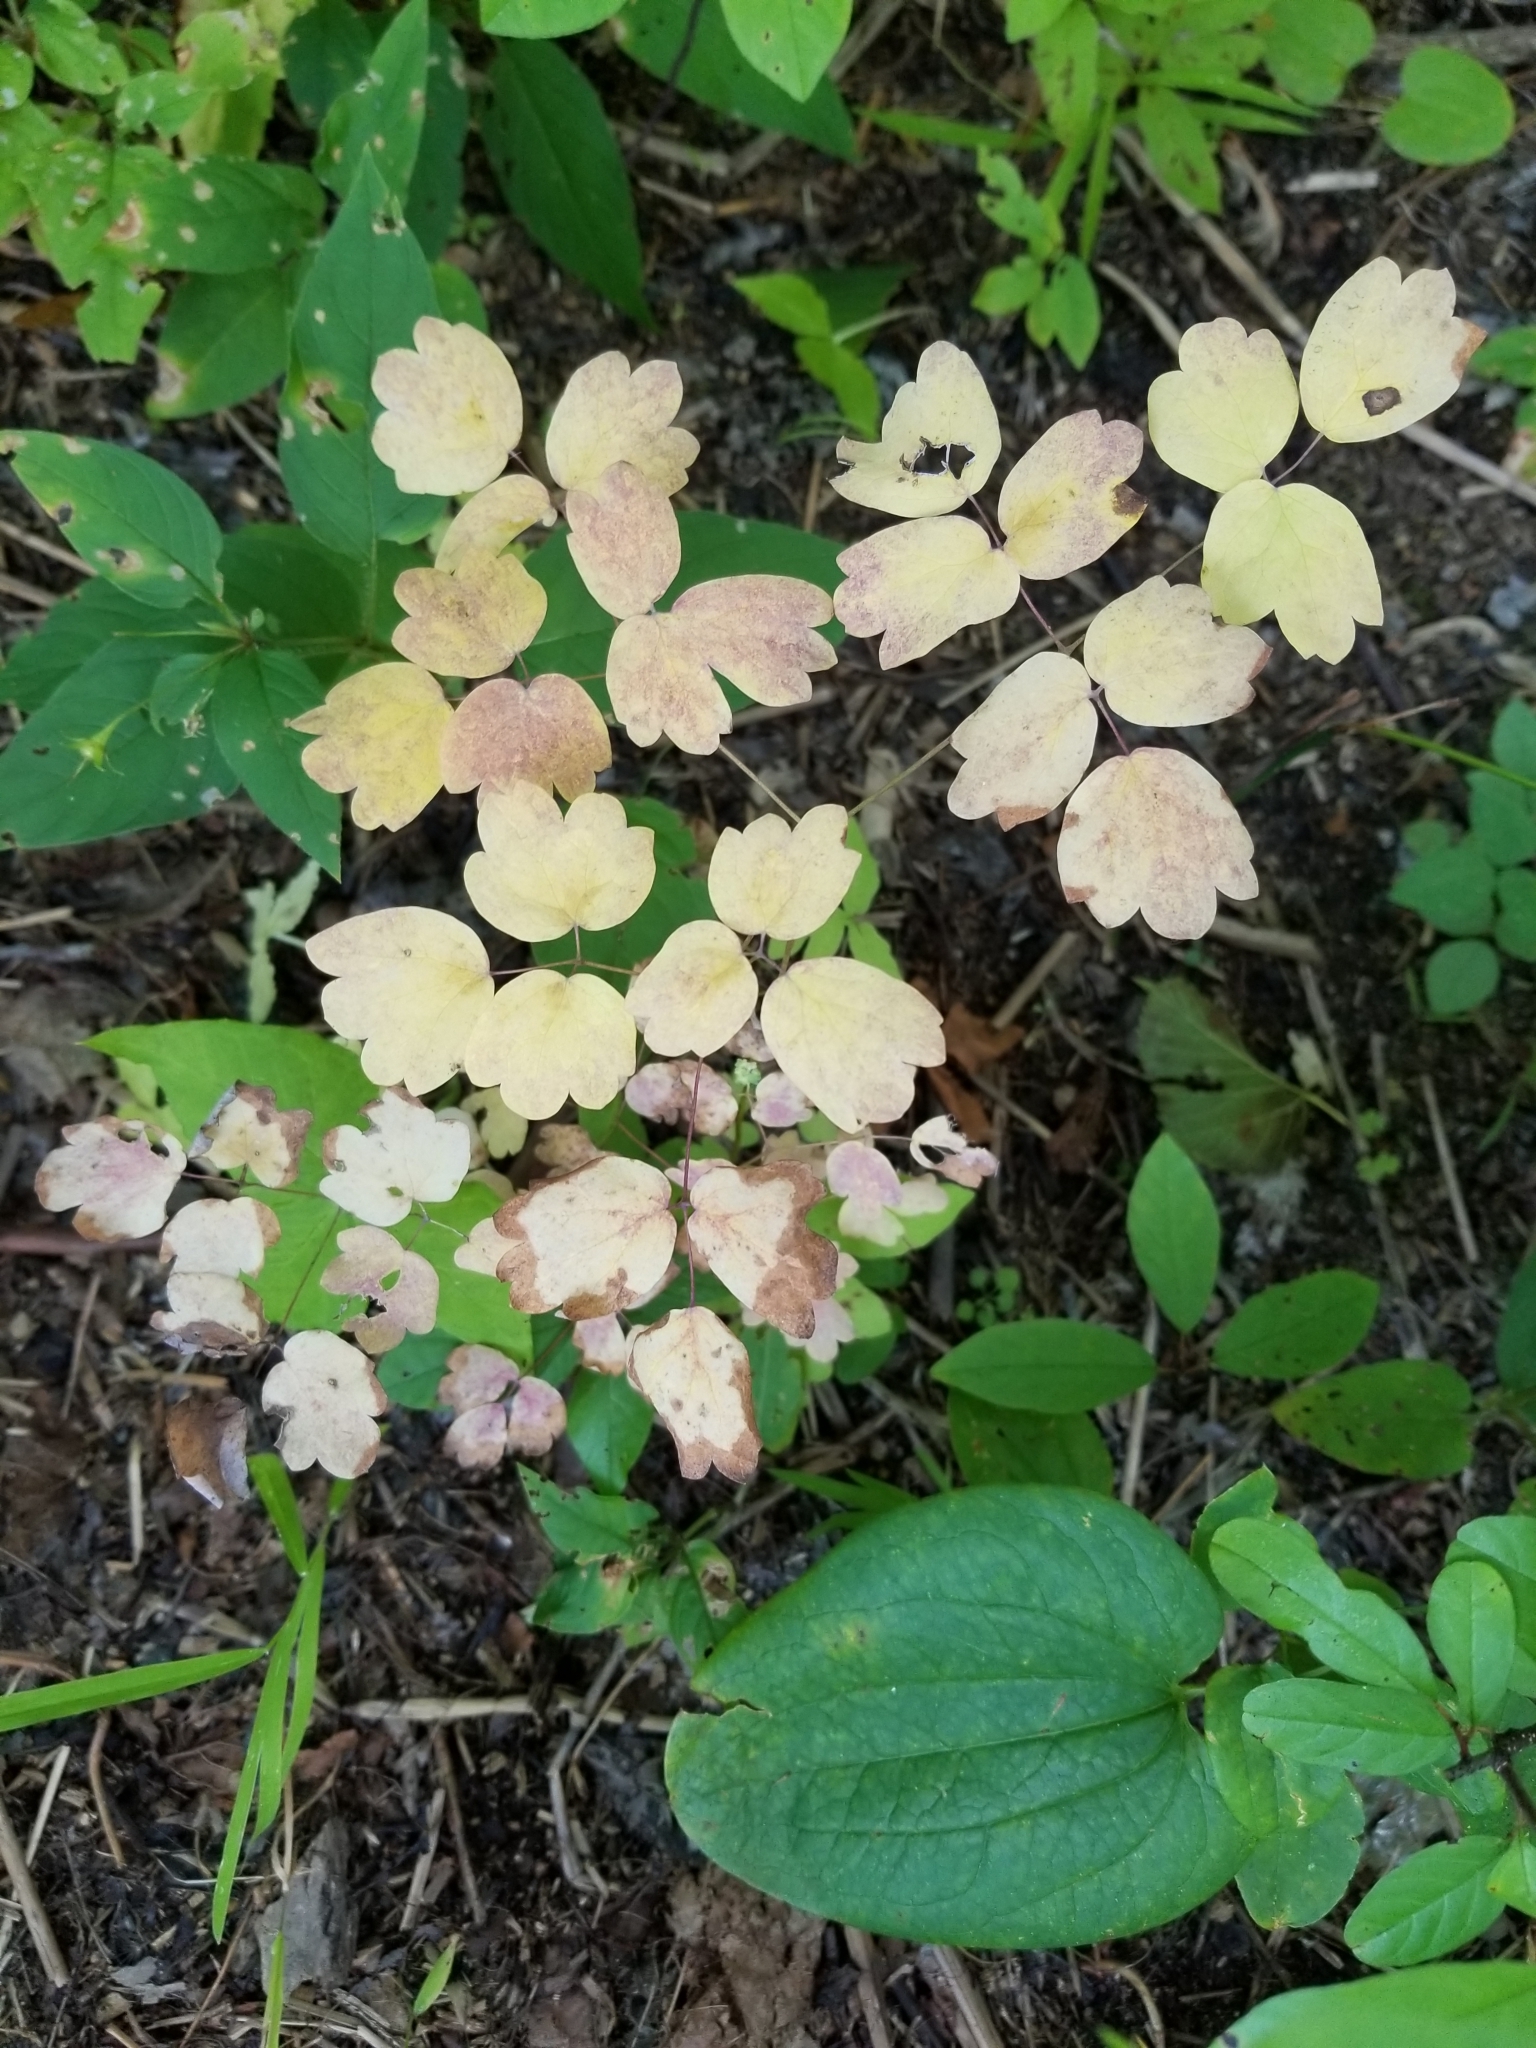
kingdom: Plantae
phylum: Tracheophyta
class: Magnoliopsida
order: Ranunculales
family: Ranunculaceae
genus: Thalictrum
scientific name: Thalictrum dioicum
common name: Early meadow-rue
